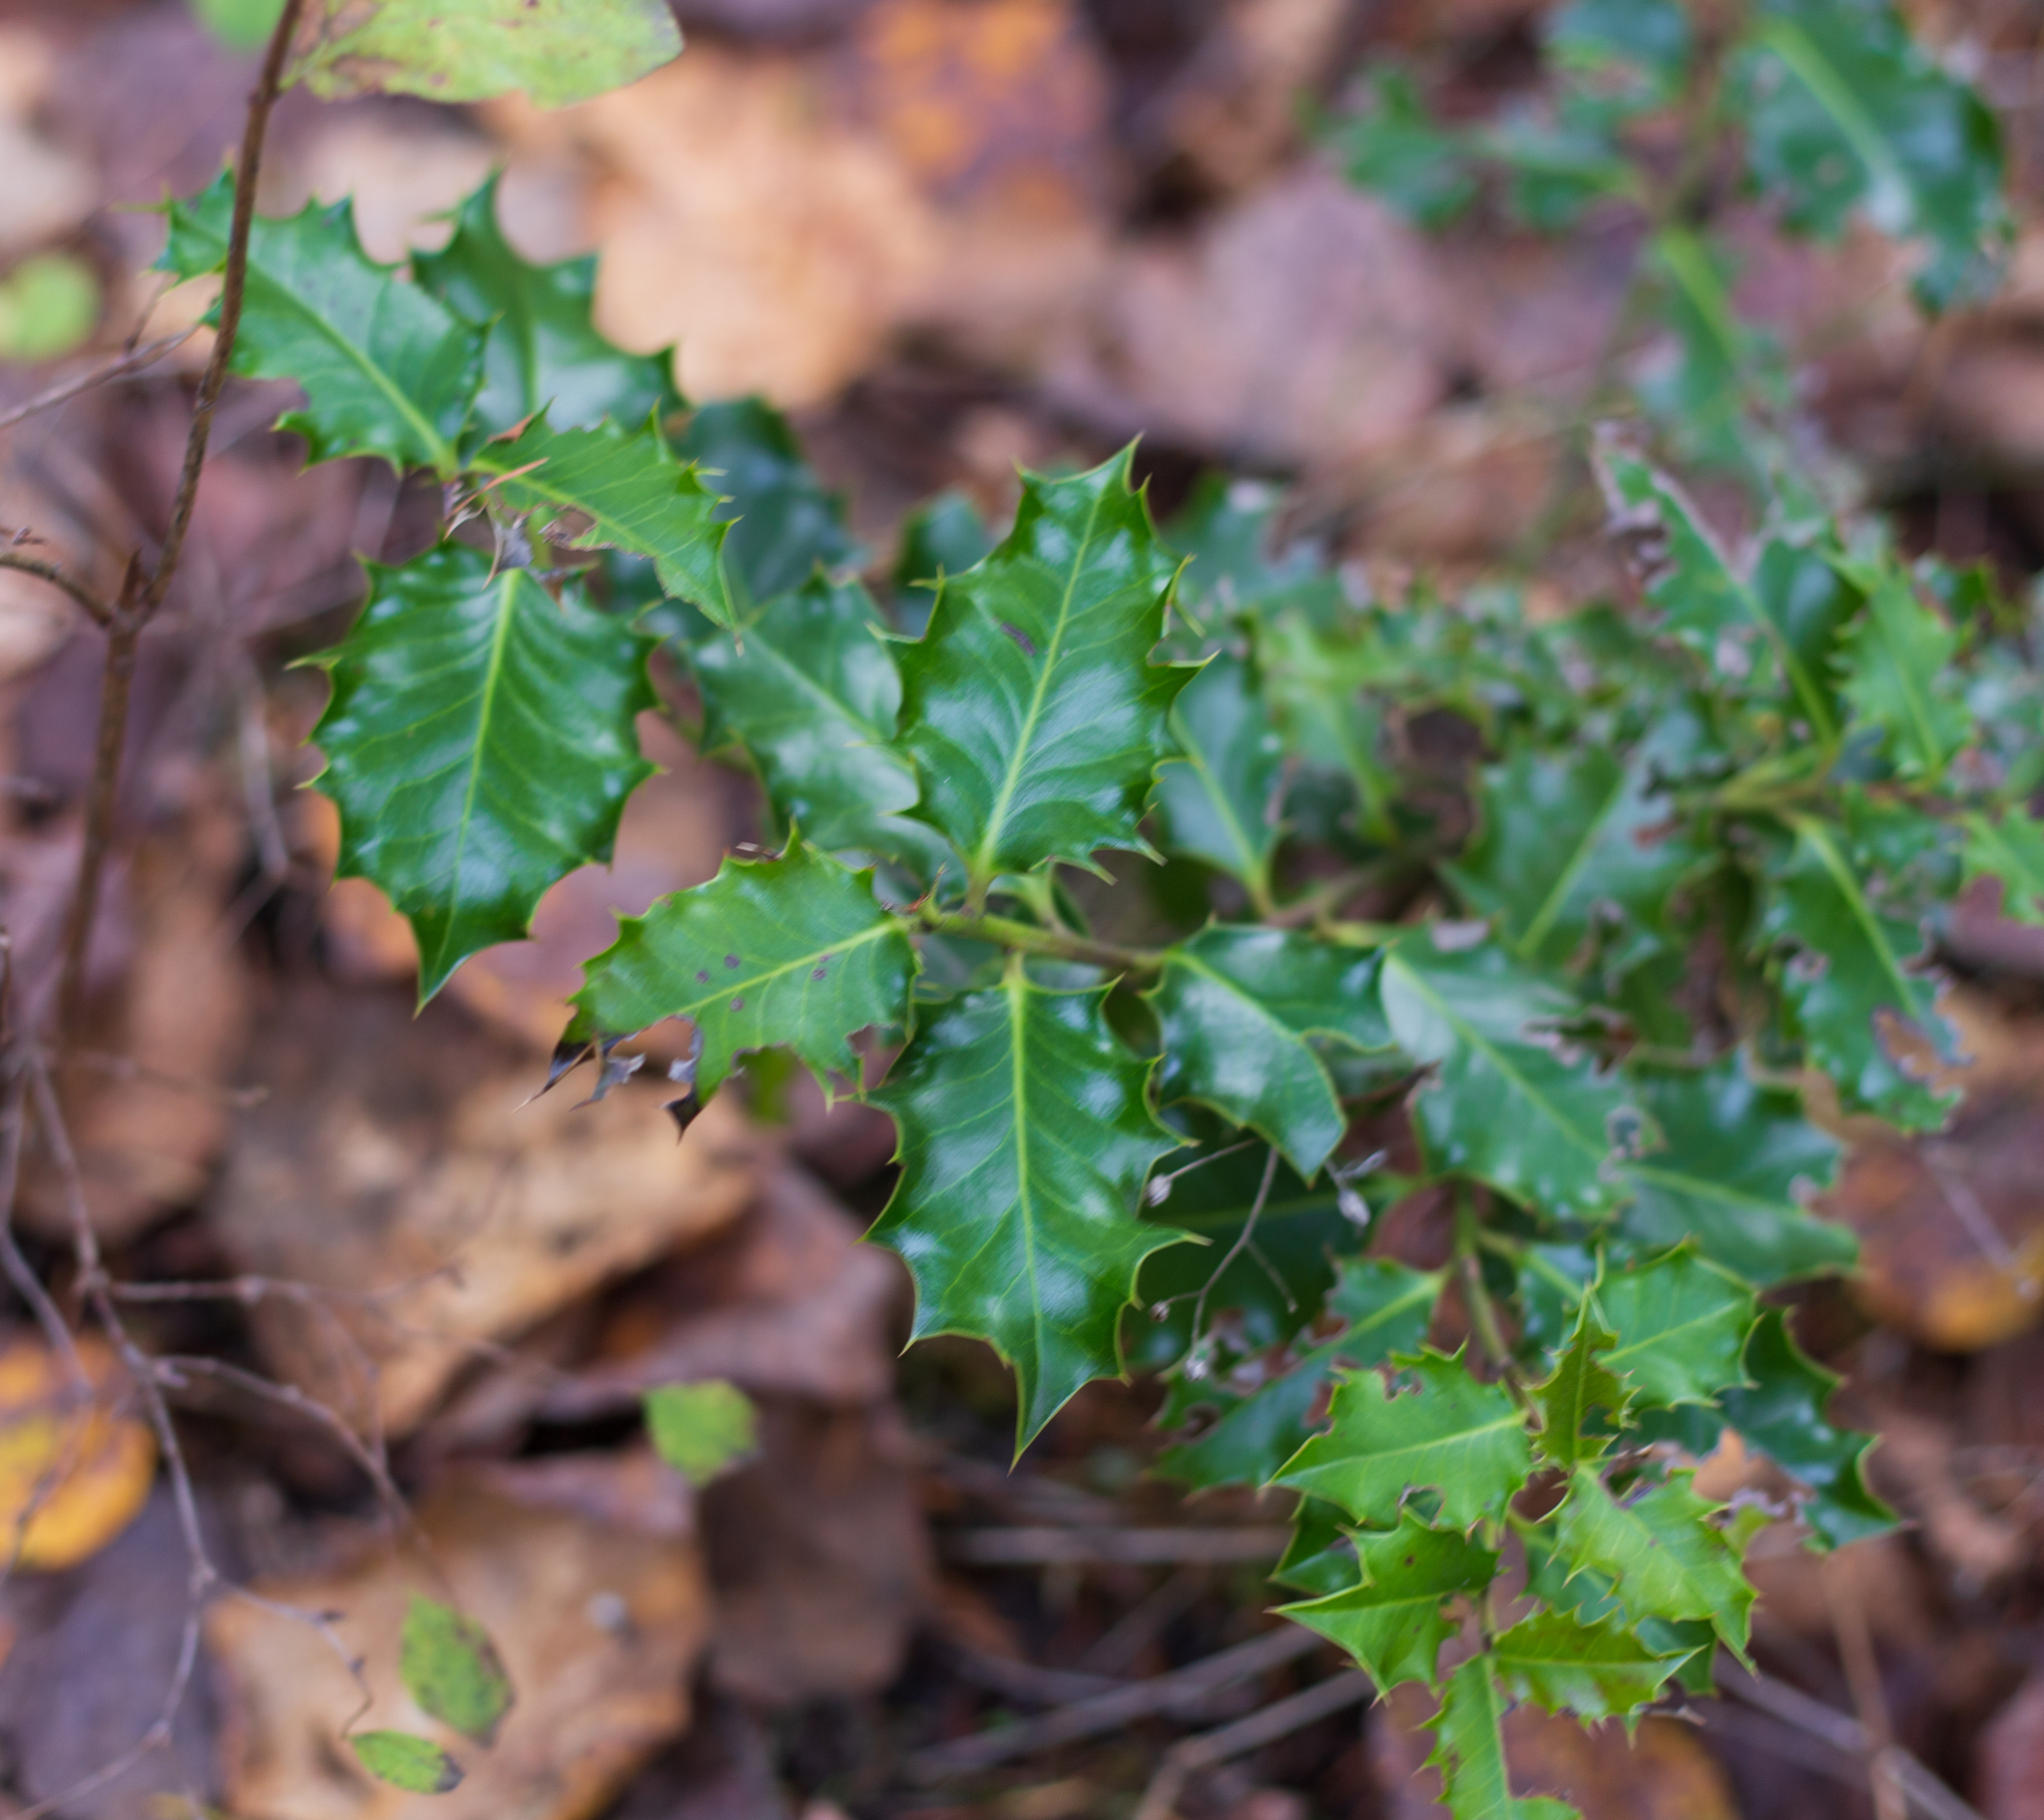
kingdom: Plantae
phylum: Tracheophyta
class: Magnoliopsida
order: Aquifoliales
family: Aquifoliaceae
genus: Ilex
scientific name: Ilex aquifolium
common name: English holly
